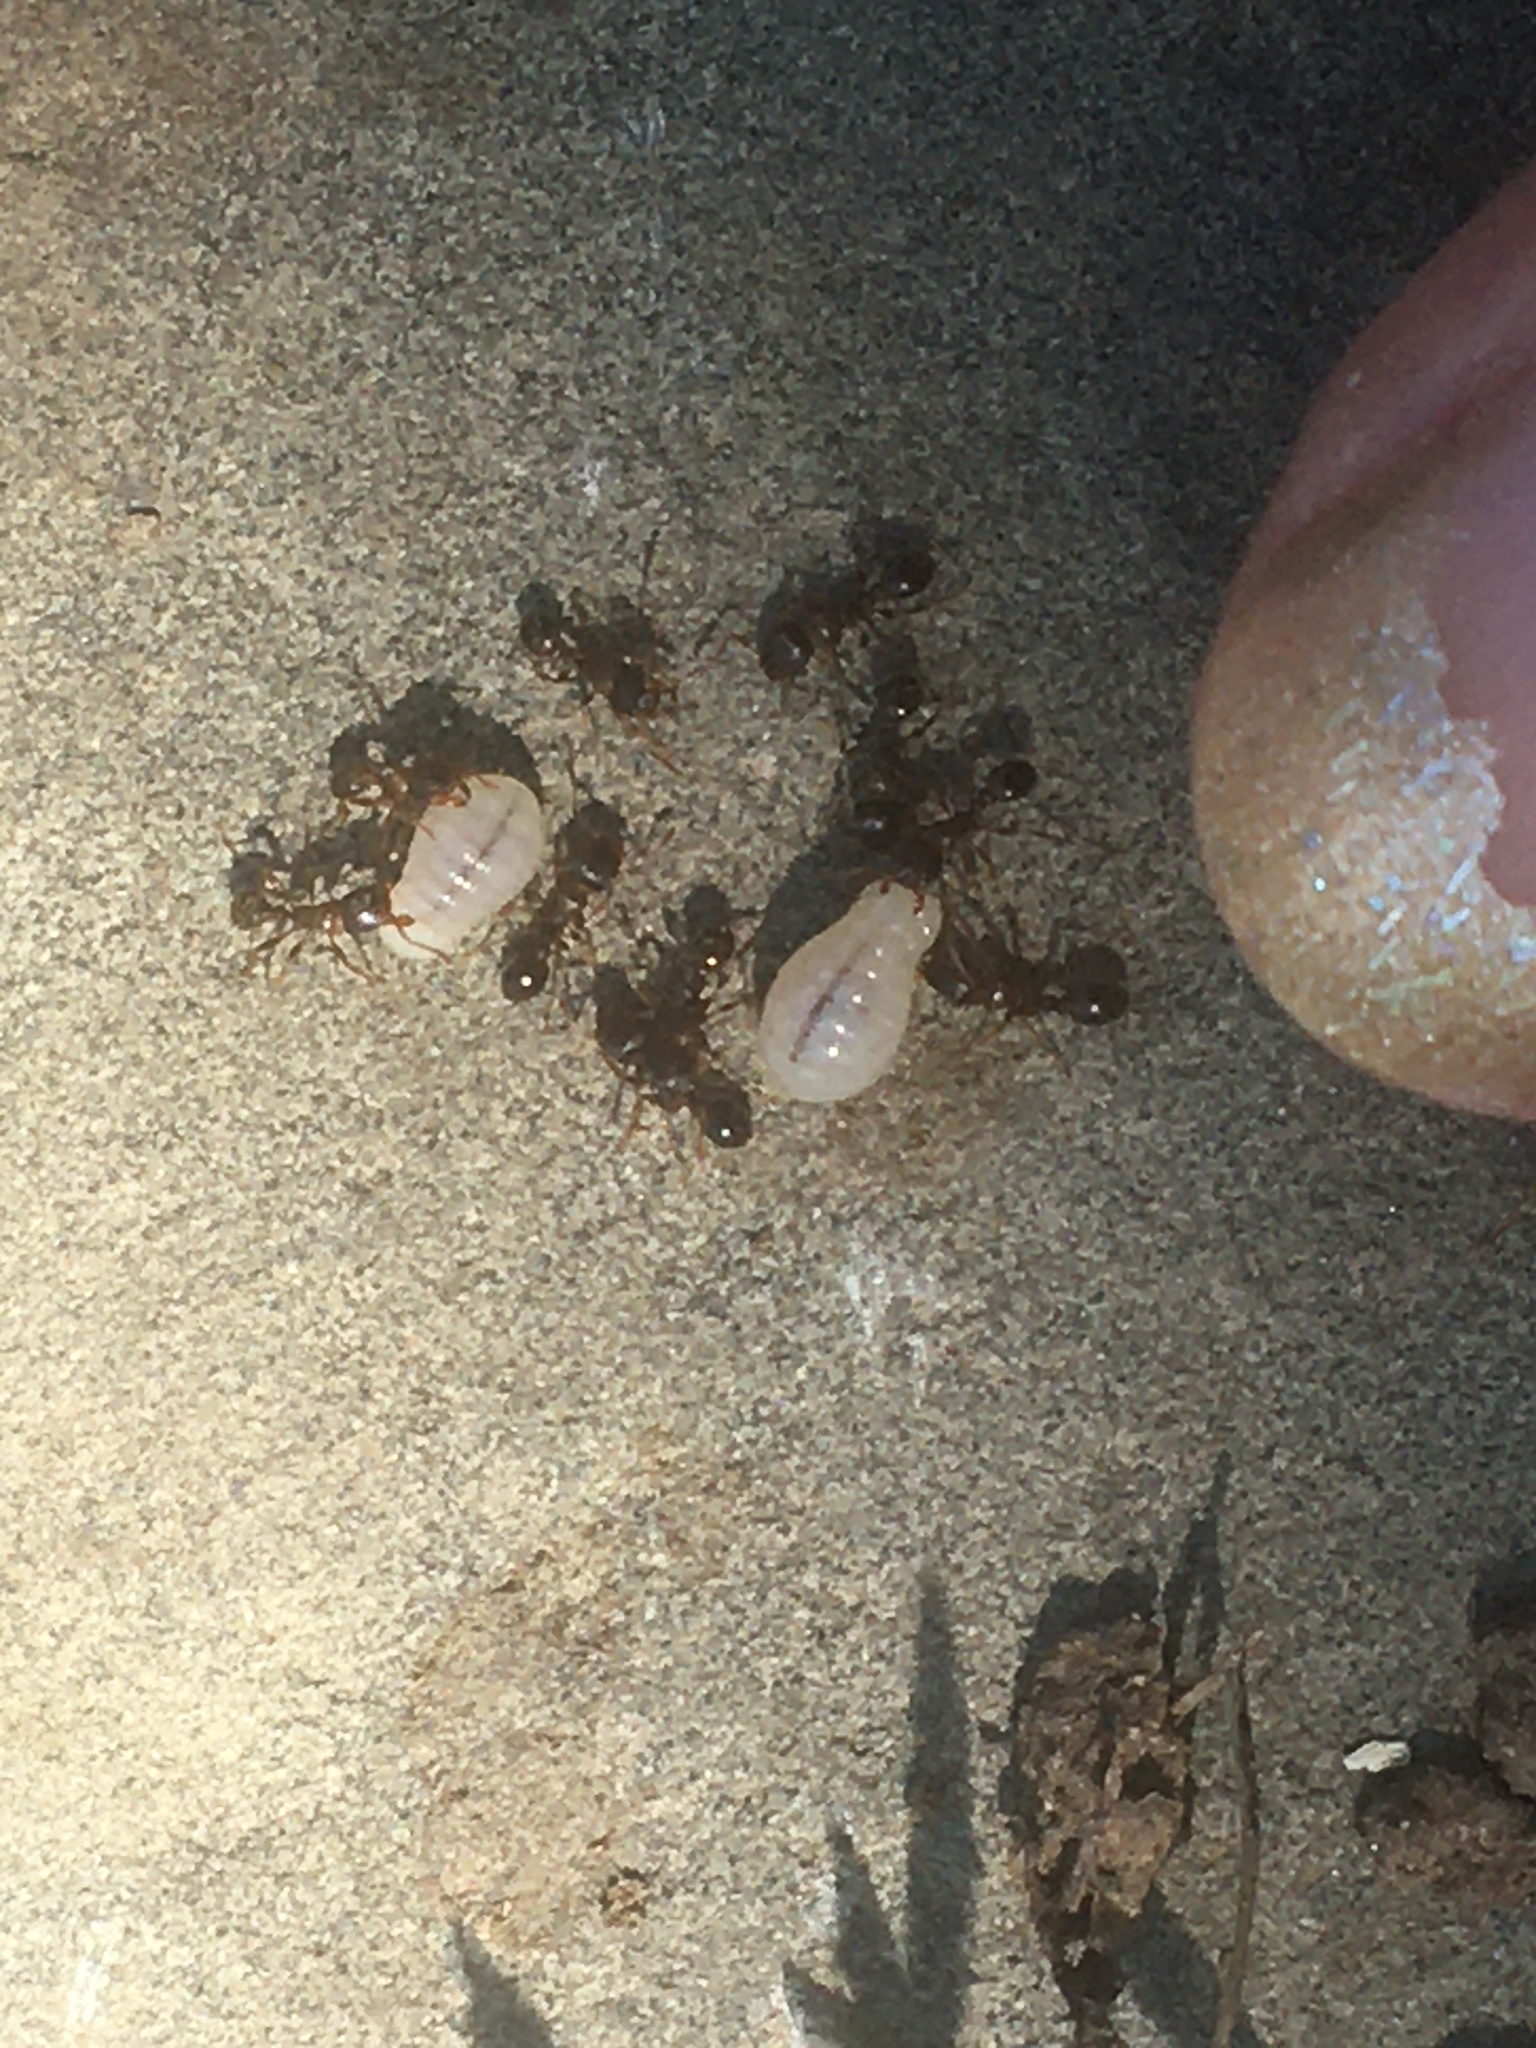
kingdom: Animalia
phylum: Arthropoda
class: Insecta
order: Hymenoptera
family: Formicidae
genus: Tetramorium
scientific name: Tetramorium immigrans
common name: Pavement ant
